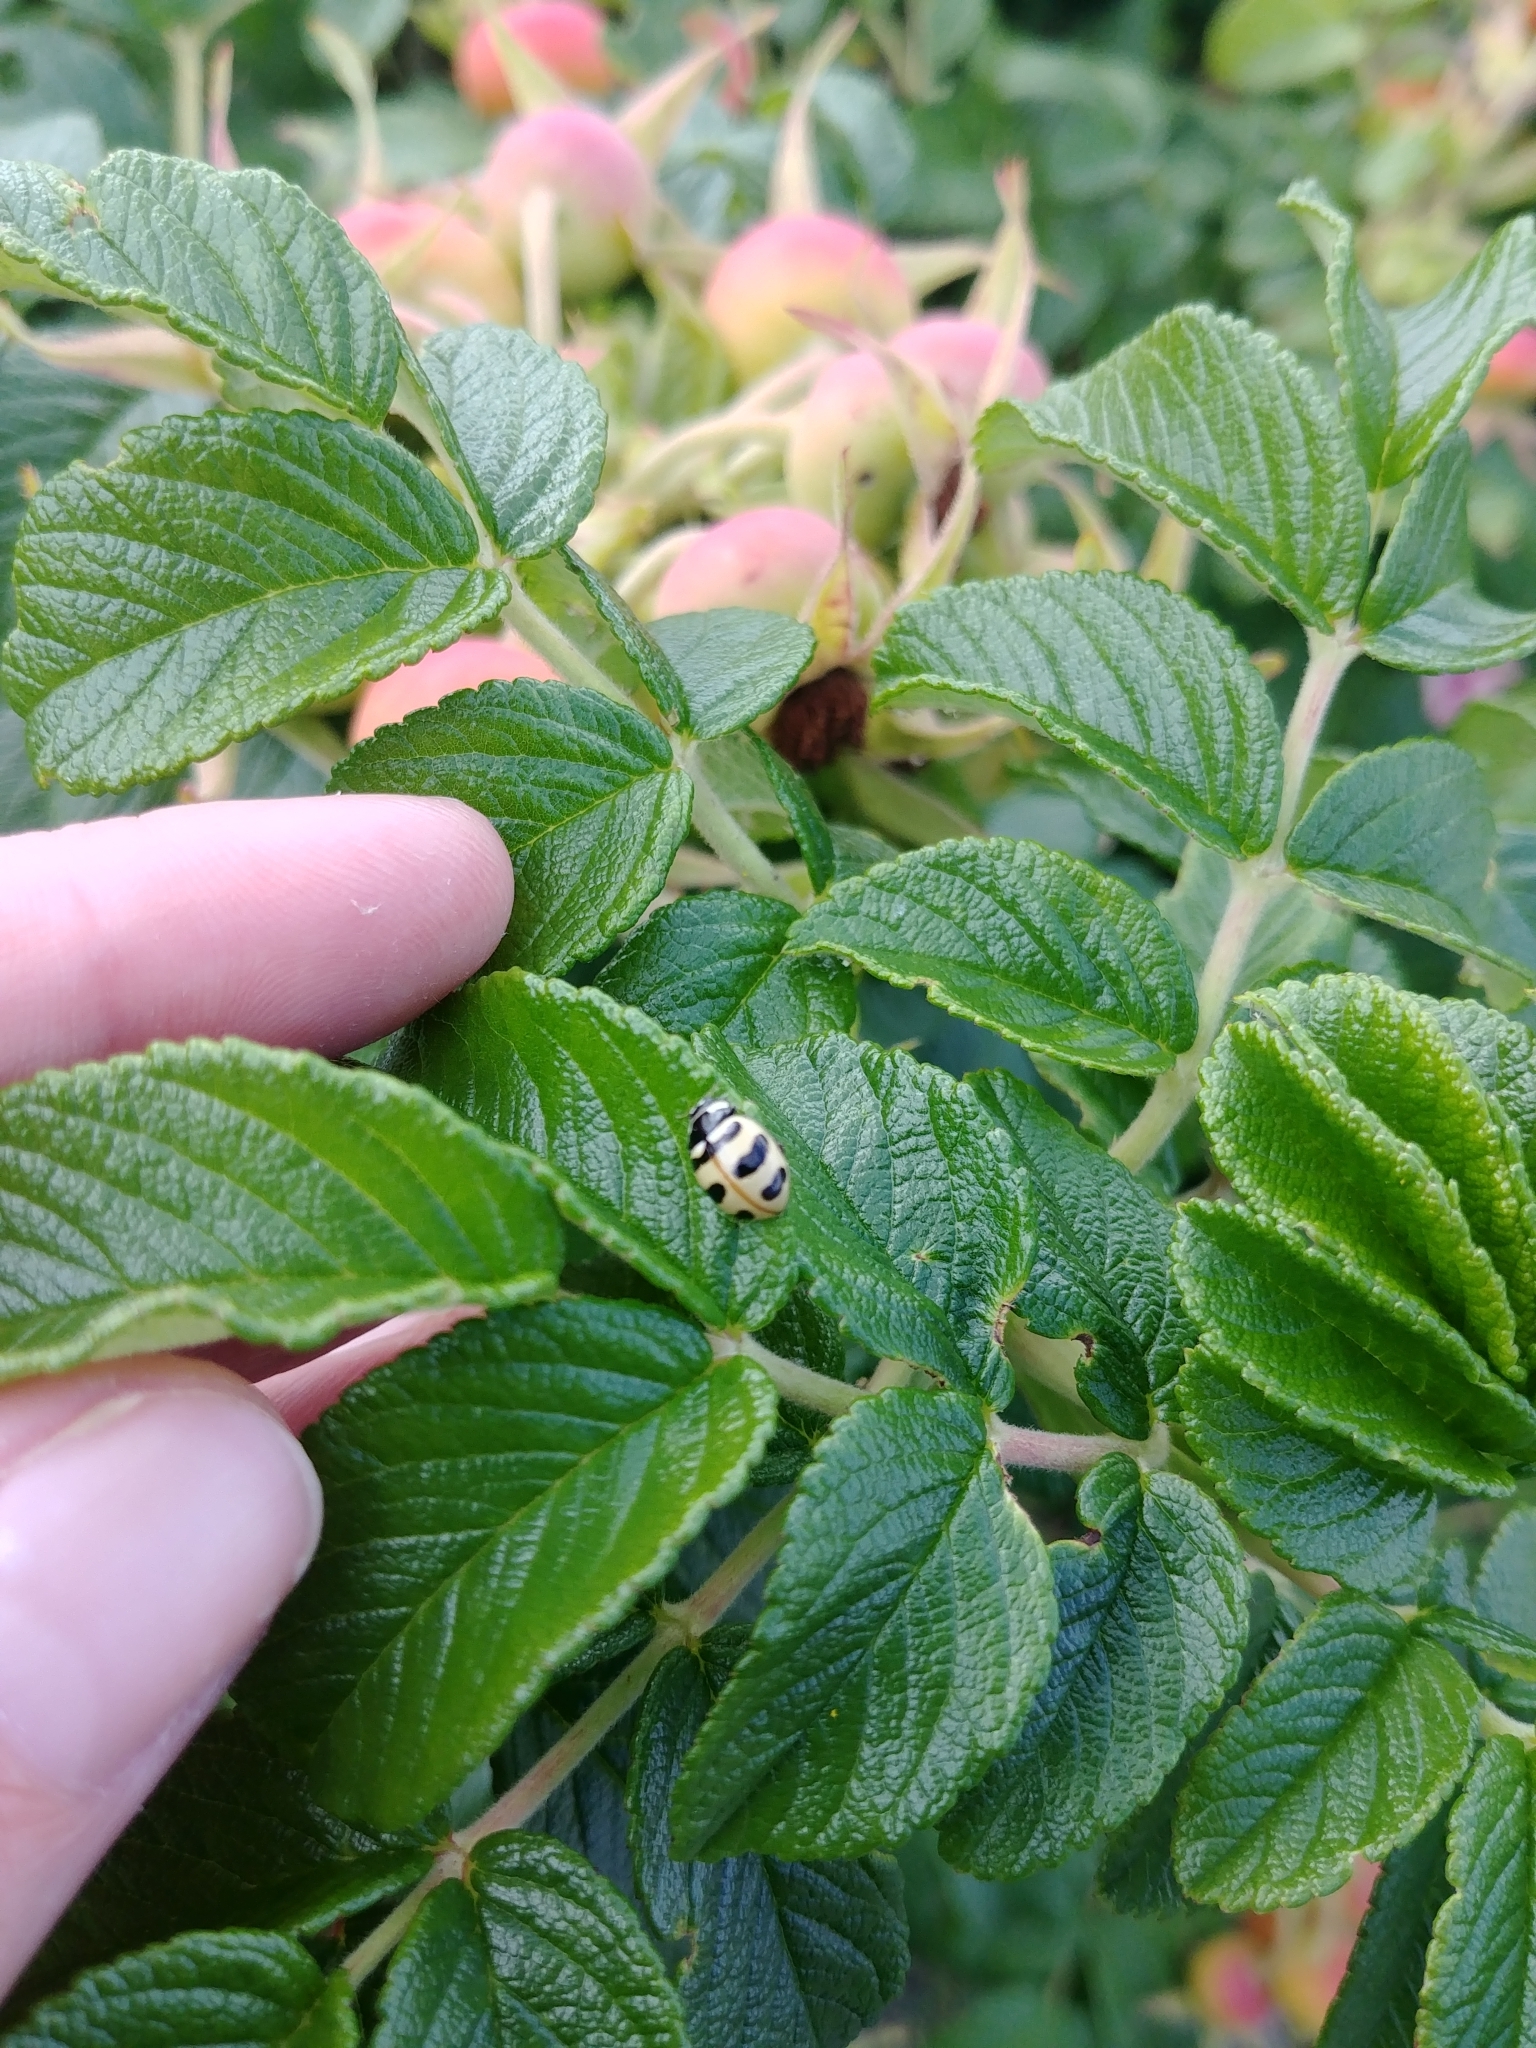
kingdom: Animalia
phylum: Arthropoda
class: Insecta
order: Coleoptera
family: Coccinellidae
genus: Coccinella
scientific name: Coccinella trifasciata
